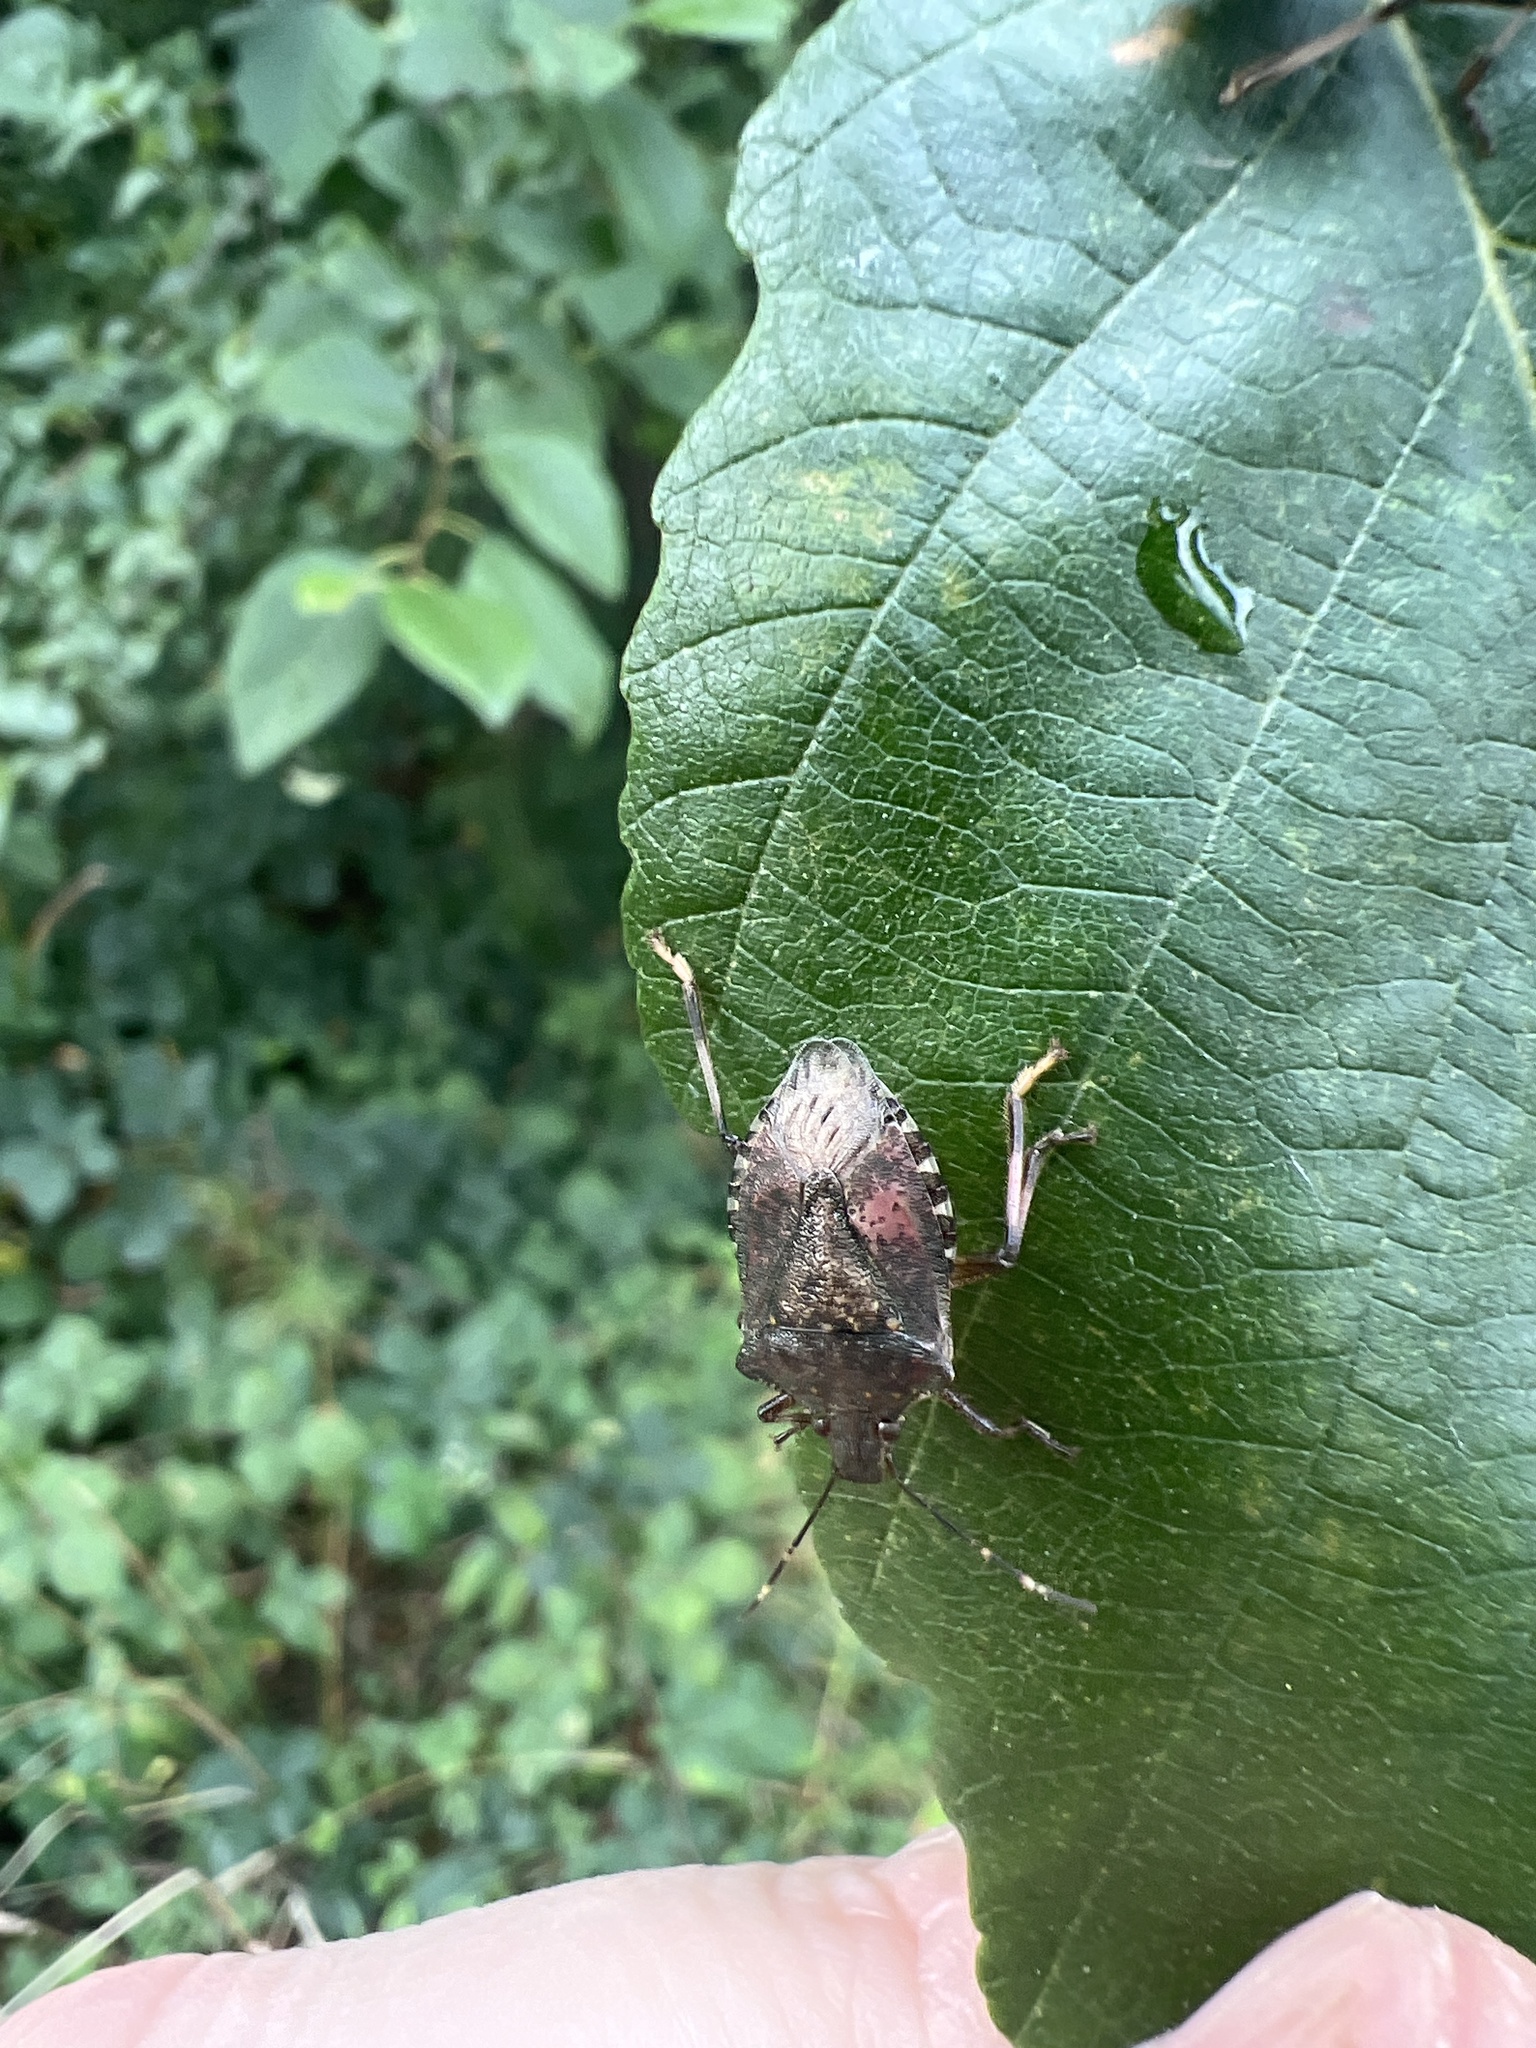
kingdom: Animalia
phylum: Arthropoda
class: Insecta
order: Hemiptera
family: Pentatomidae
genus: Halyomorpha
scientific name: Halyomorpha halys
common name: Brown marmorated stink bug
